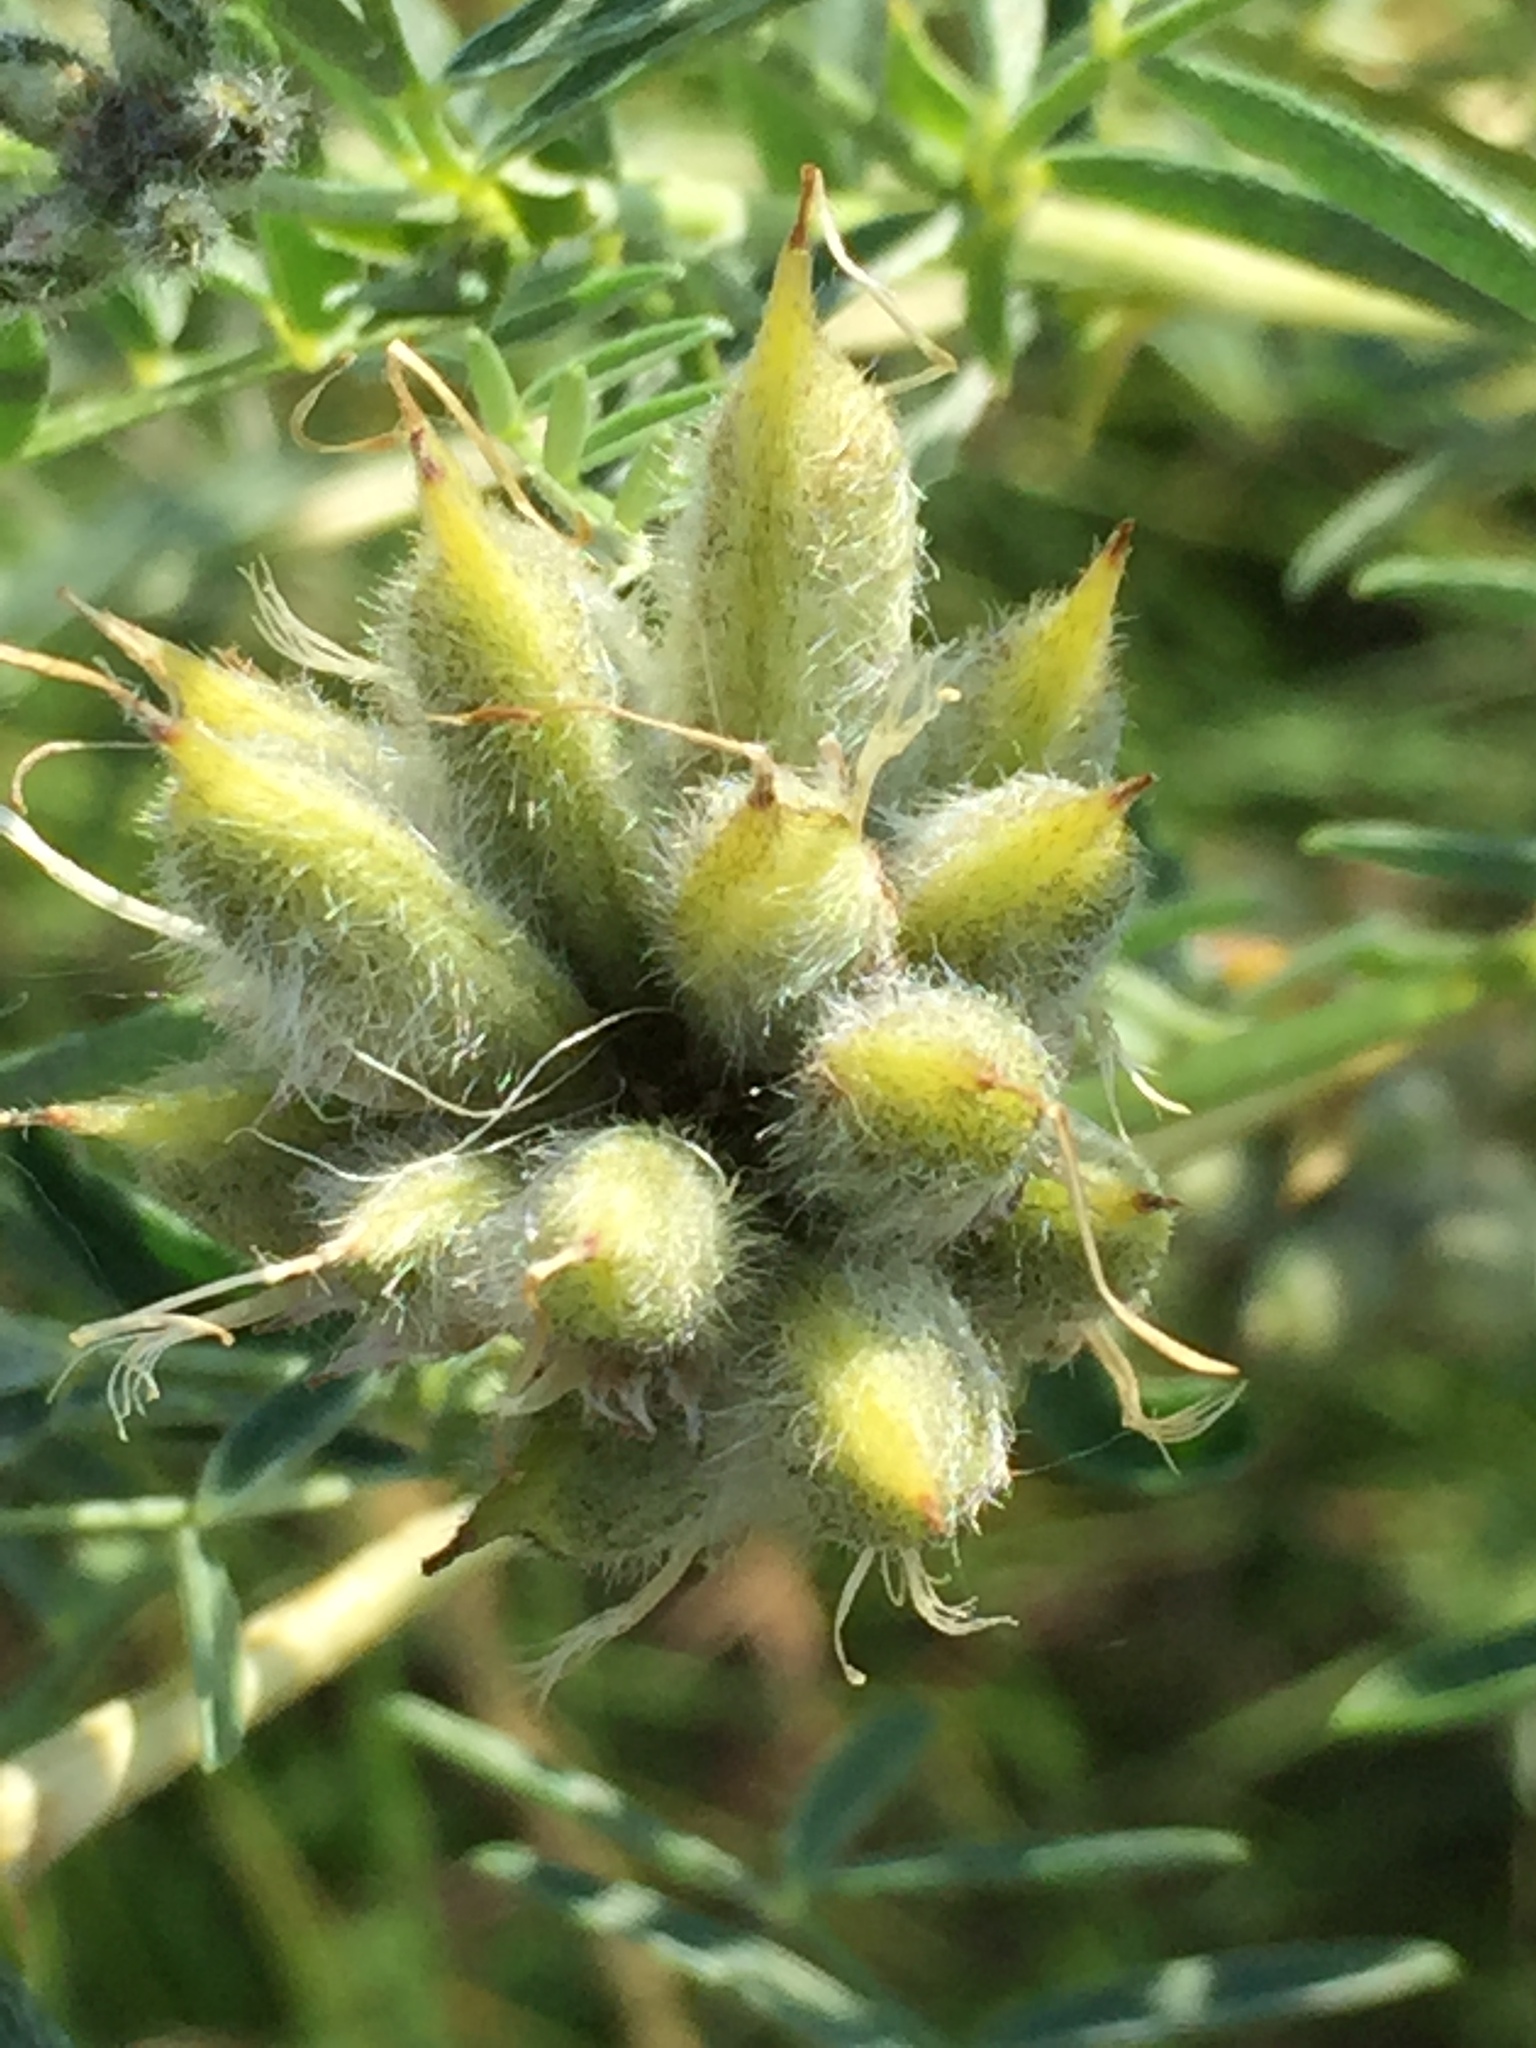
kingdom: Plantae
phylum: Tracheophyta
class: Magnoliopsida
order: Fabales
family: Fabaceae
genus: Astragalus
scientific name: Astragalus cornutus
